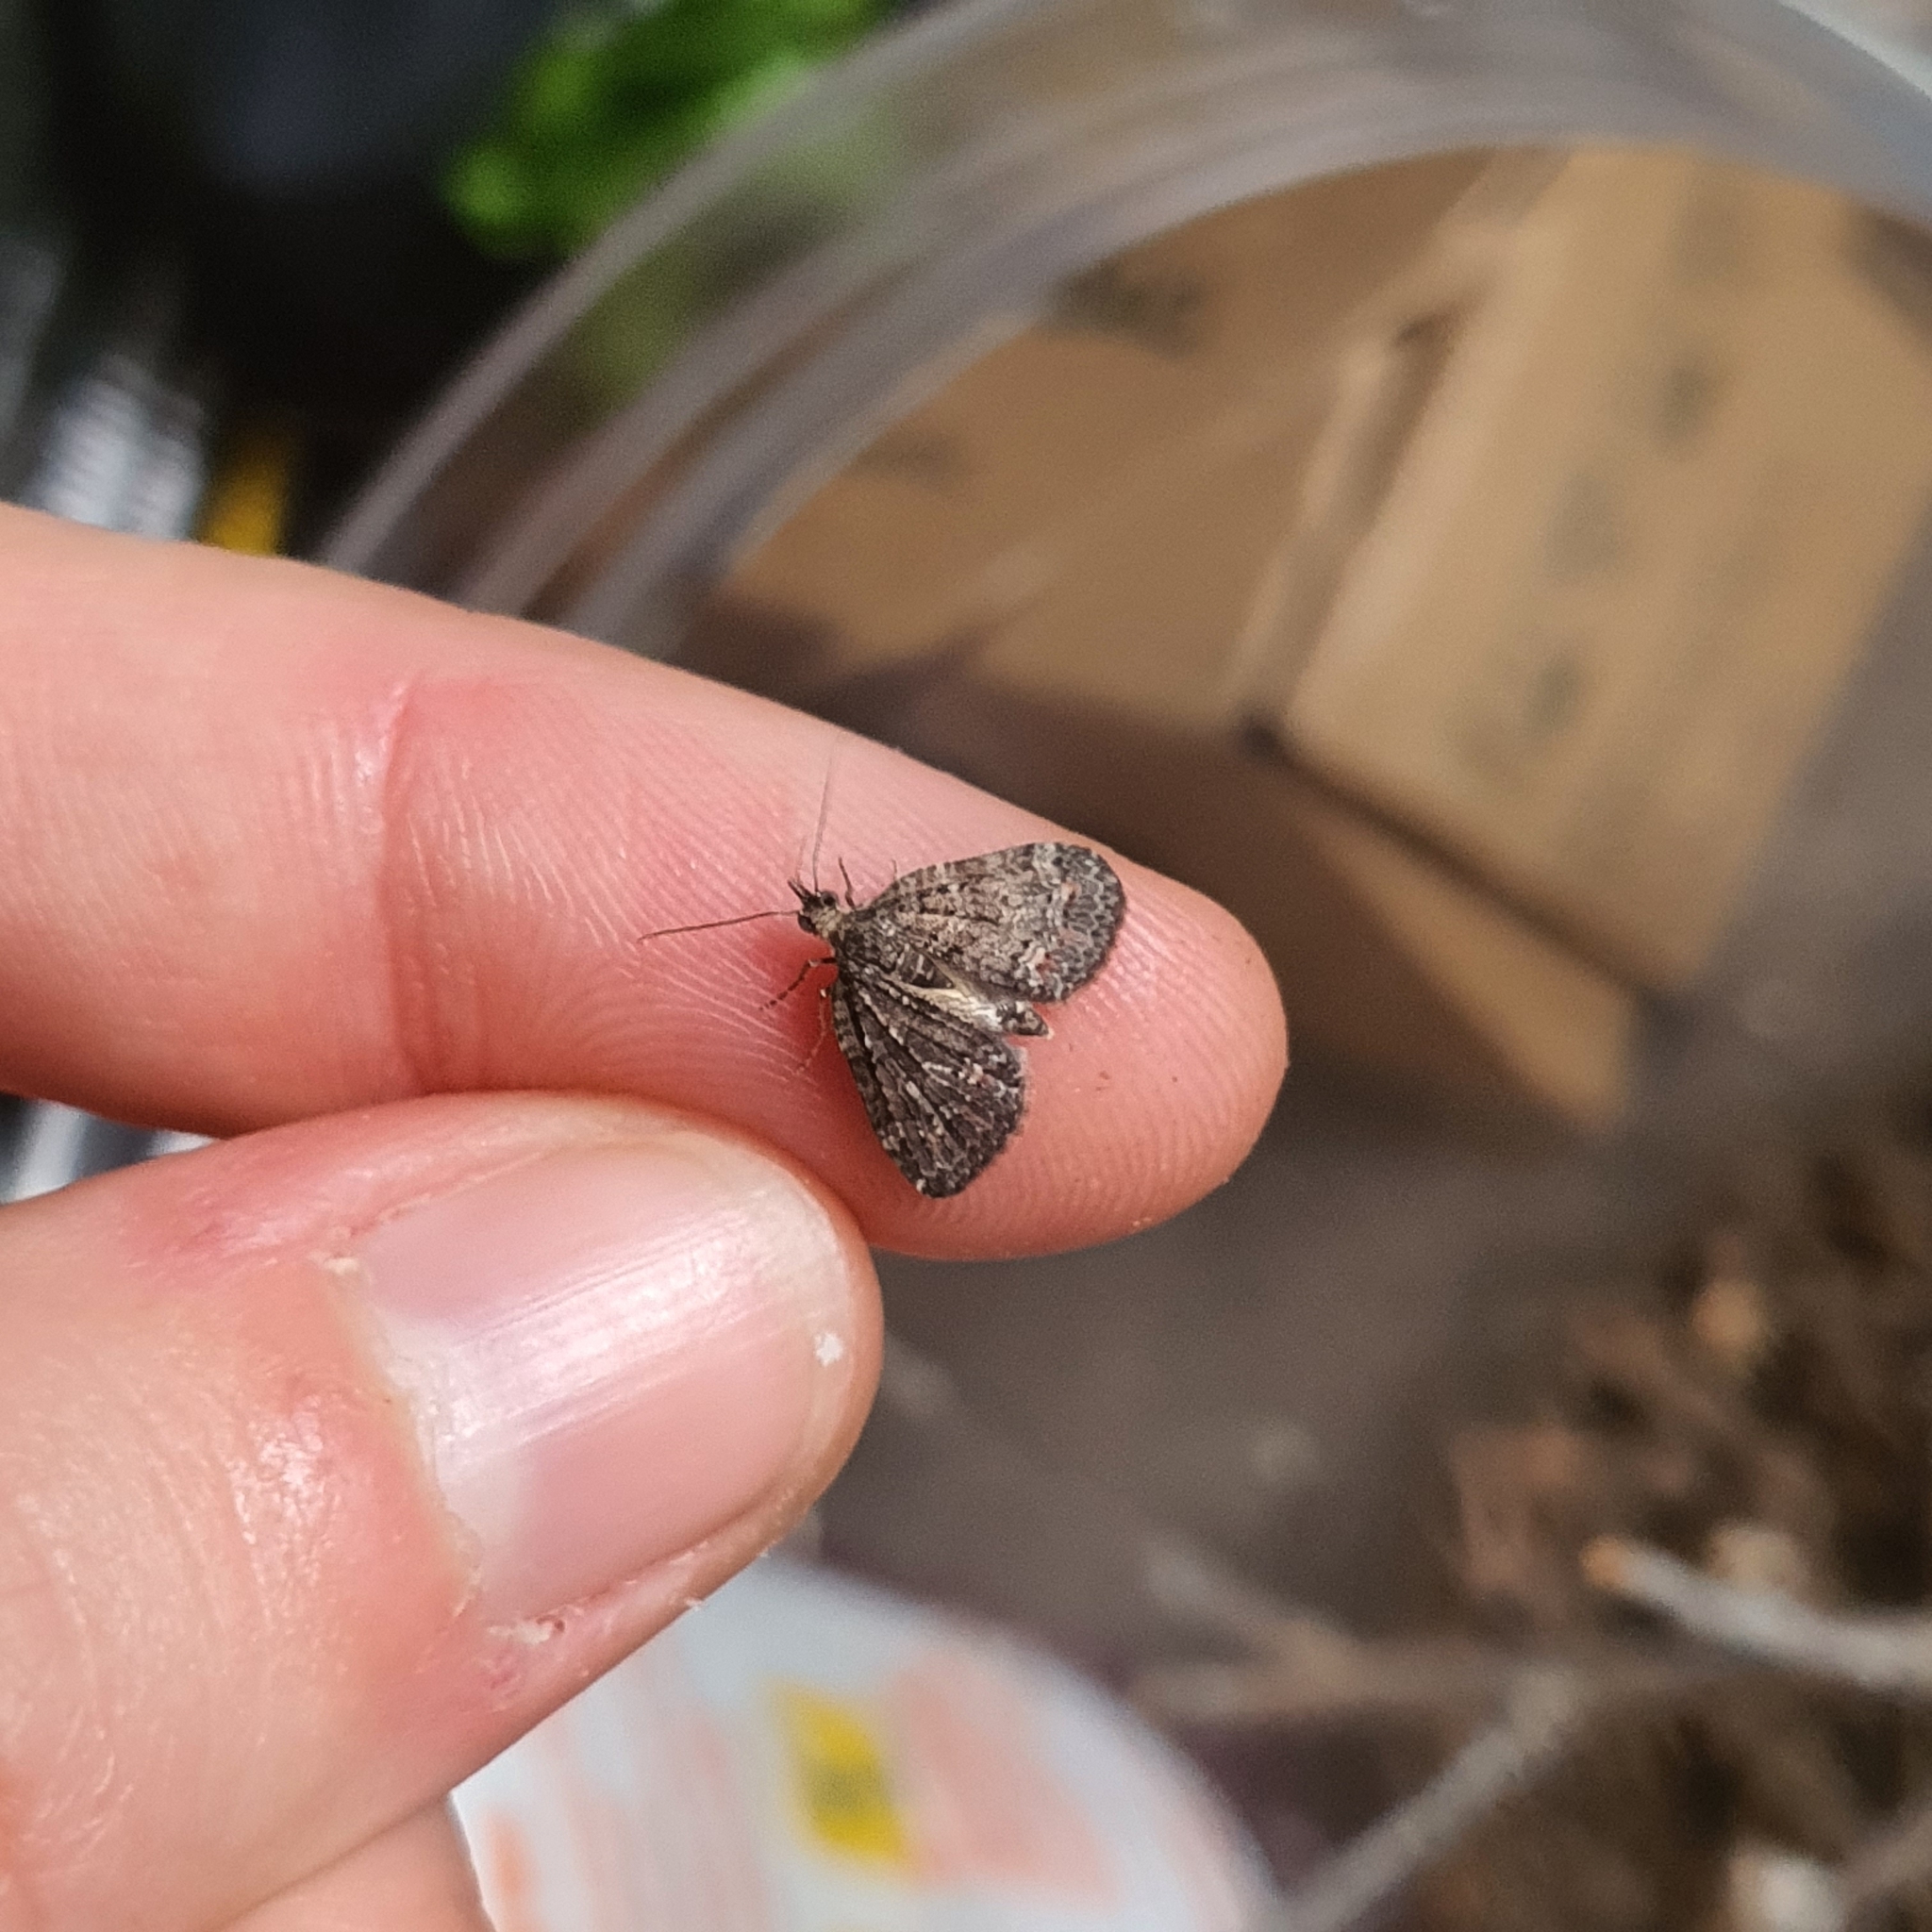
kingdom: Animalia
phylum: Arthropoda
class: Insecta
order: Lepidoptera
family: Geometridae
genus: Microdes
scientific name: Microdes squamulata
